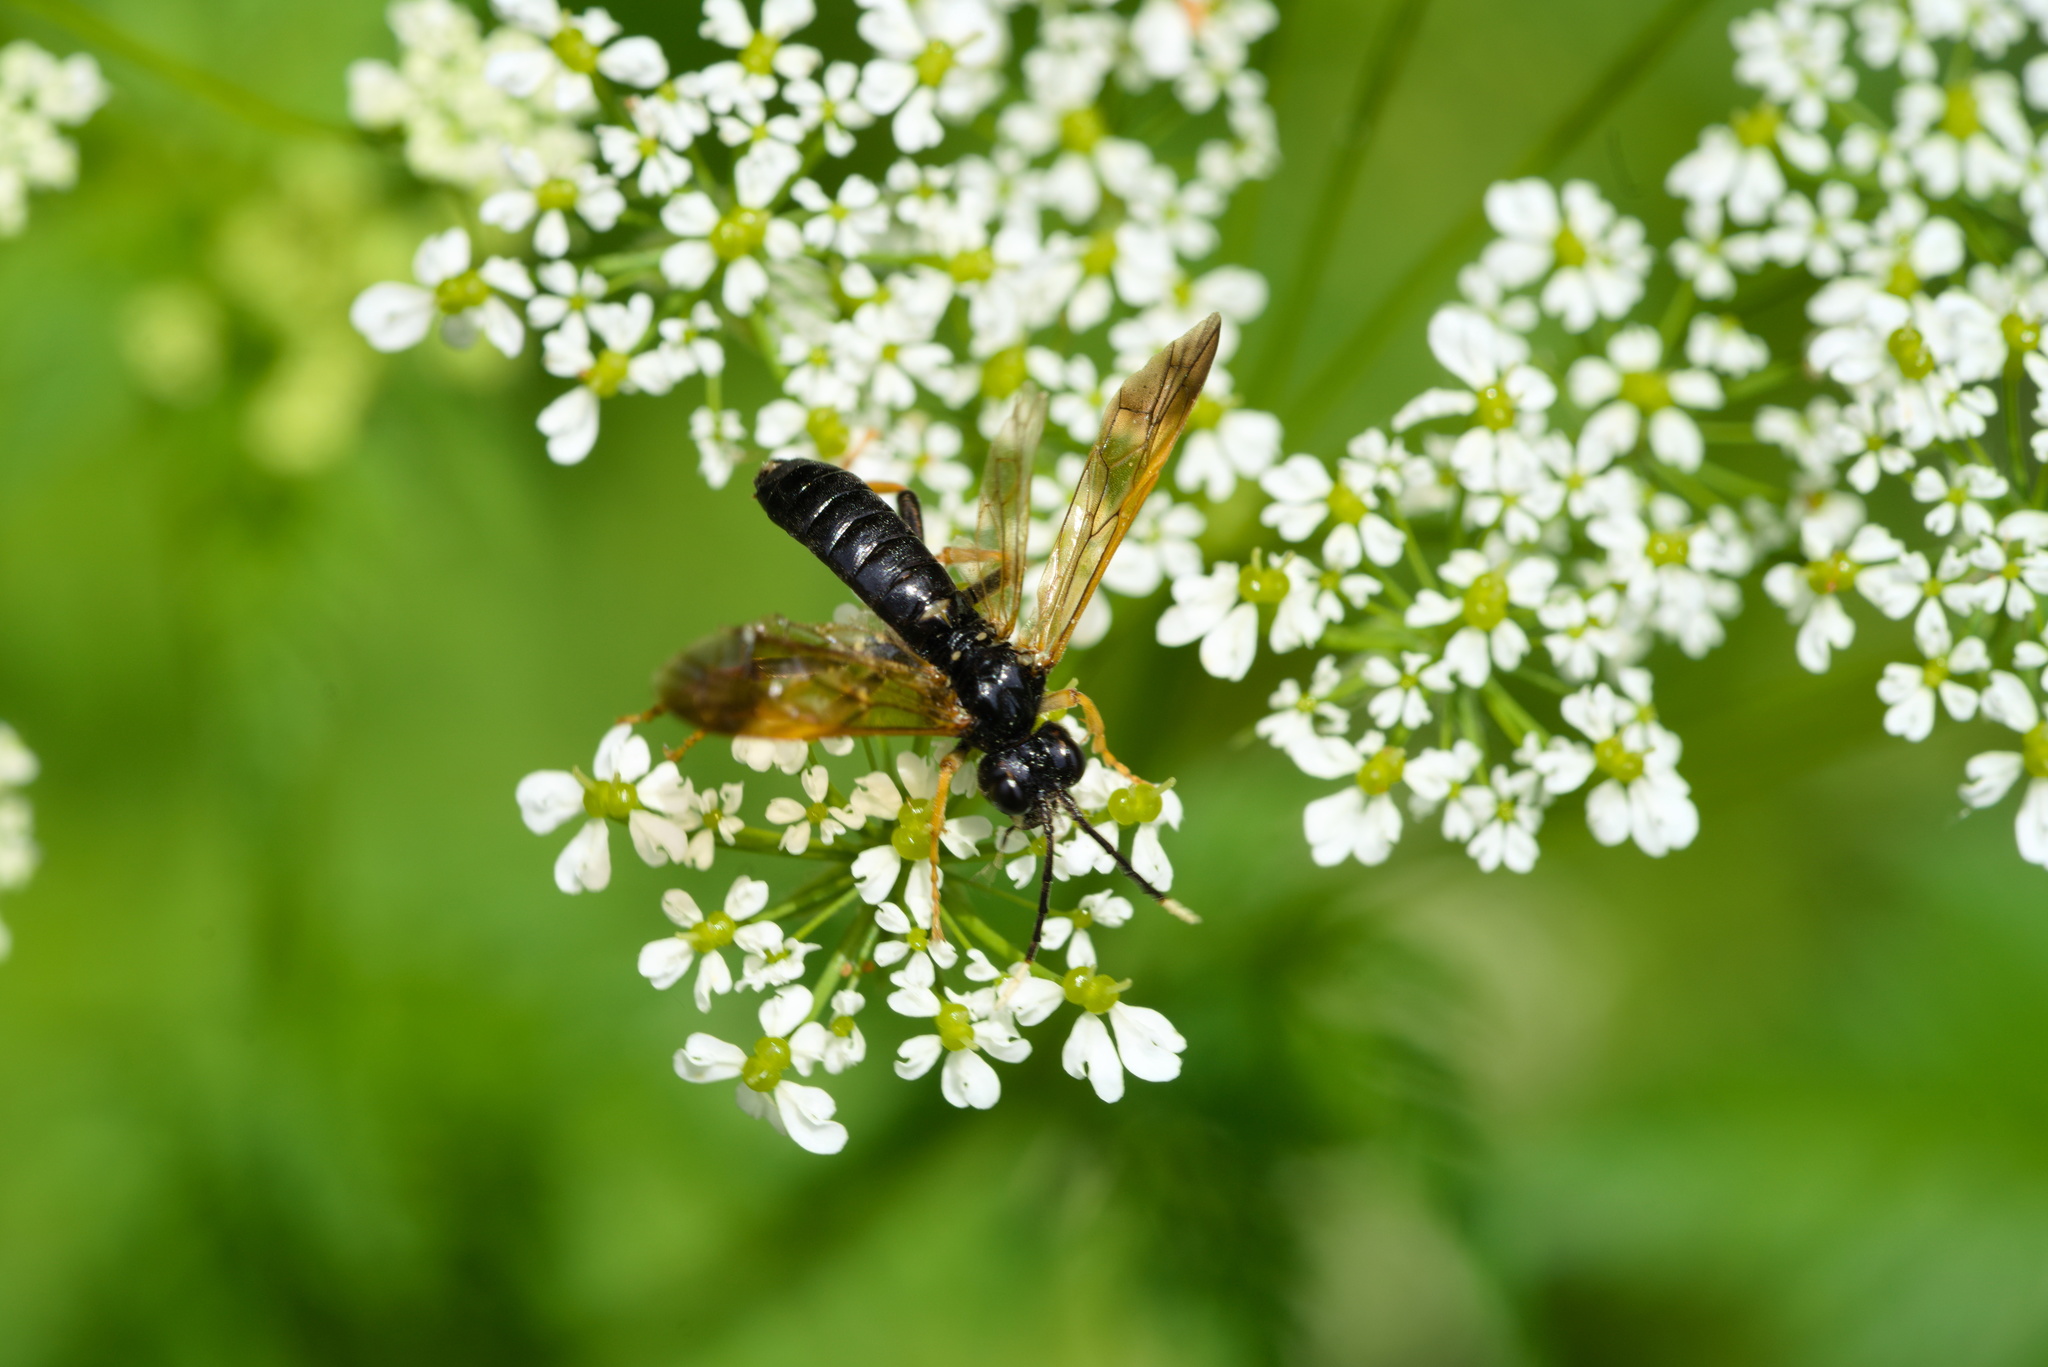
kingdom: Animalia
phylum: Arthropoda
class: Insecta
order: Hymenoptera
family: Tenthredinidae
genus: Tenthredo
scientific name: Tenthredo crassa
